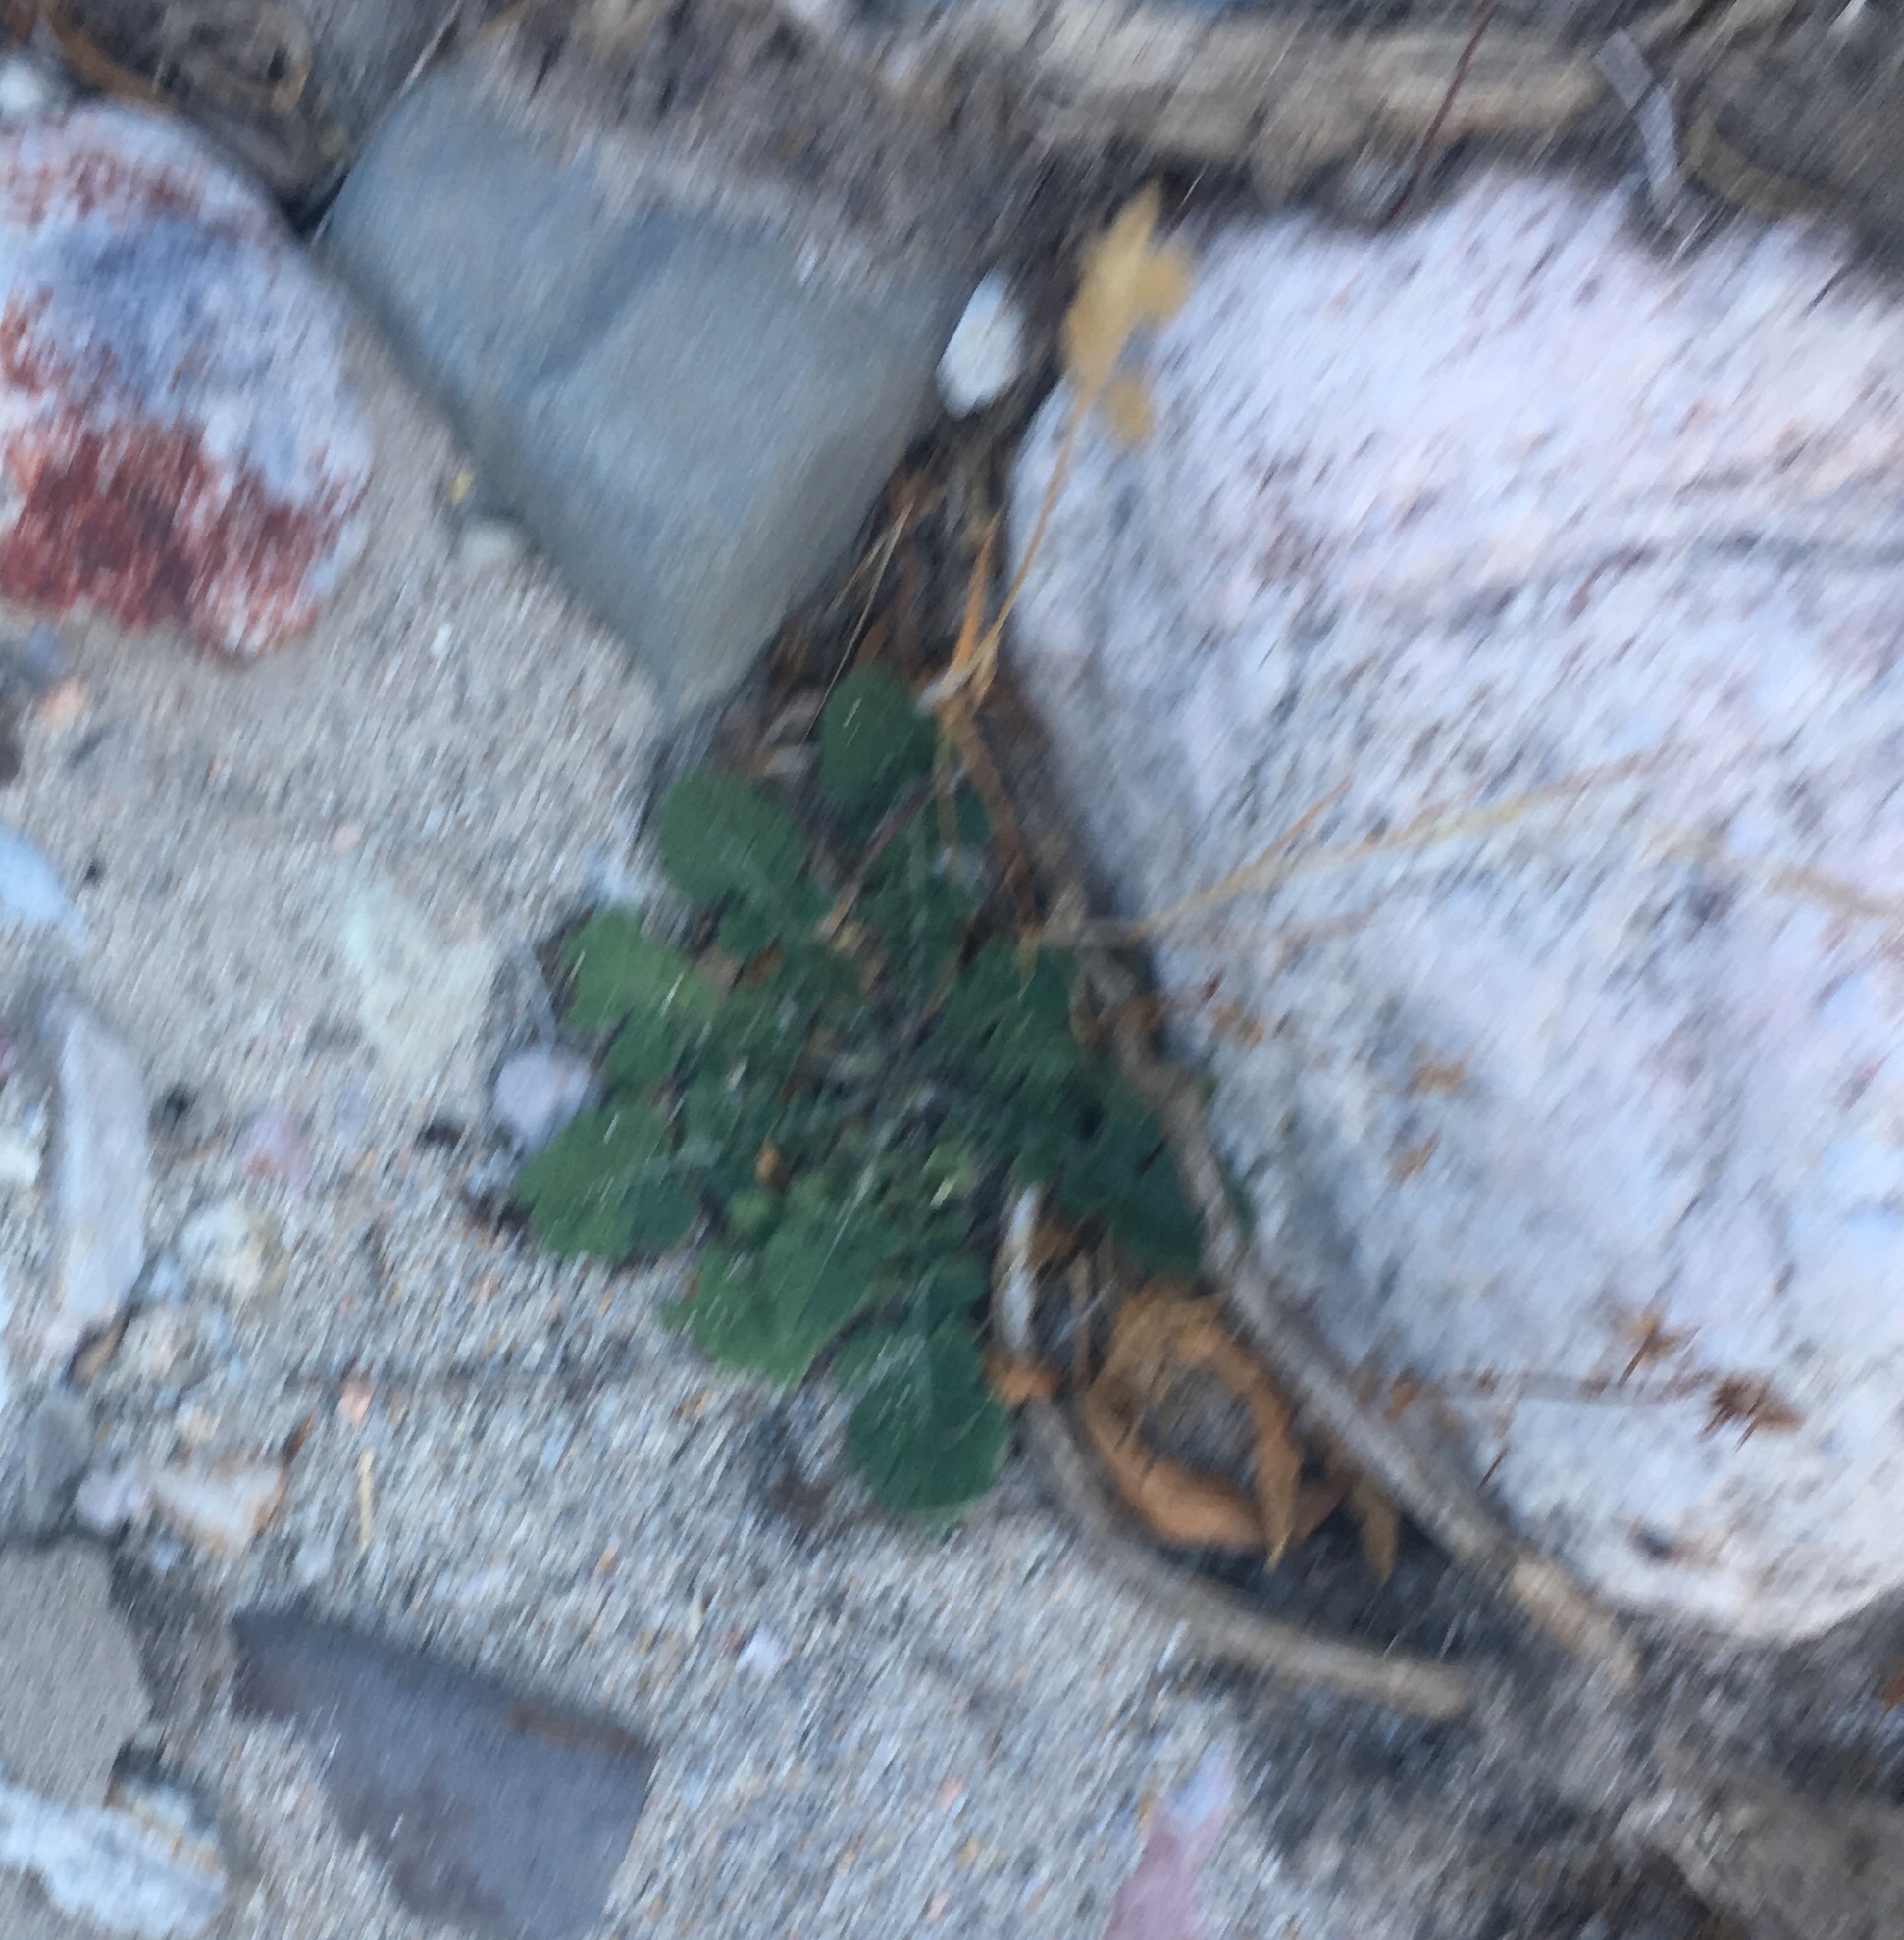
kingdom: Plantae
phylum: Tracheophyta
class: Magnoliopsida
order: Brassicales
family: Brassicaceae
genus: Hirschfeldia
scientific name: Hirschfeldia incana
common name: Hoary mustard
